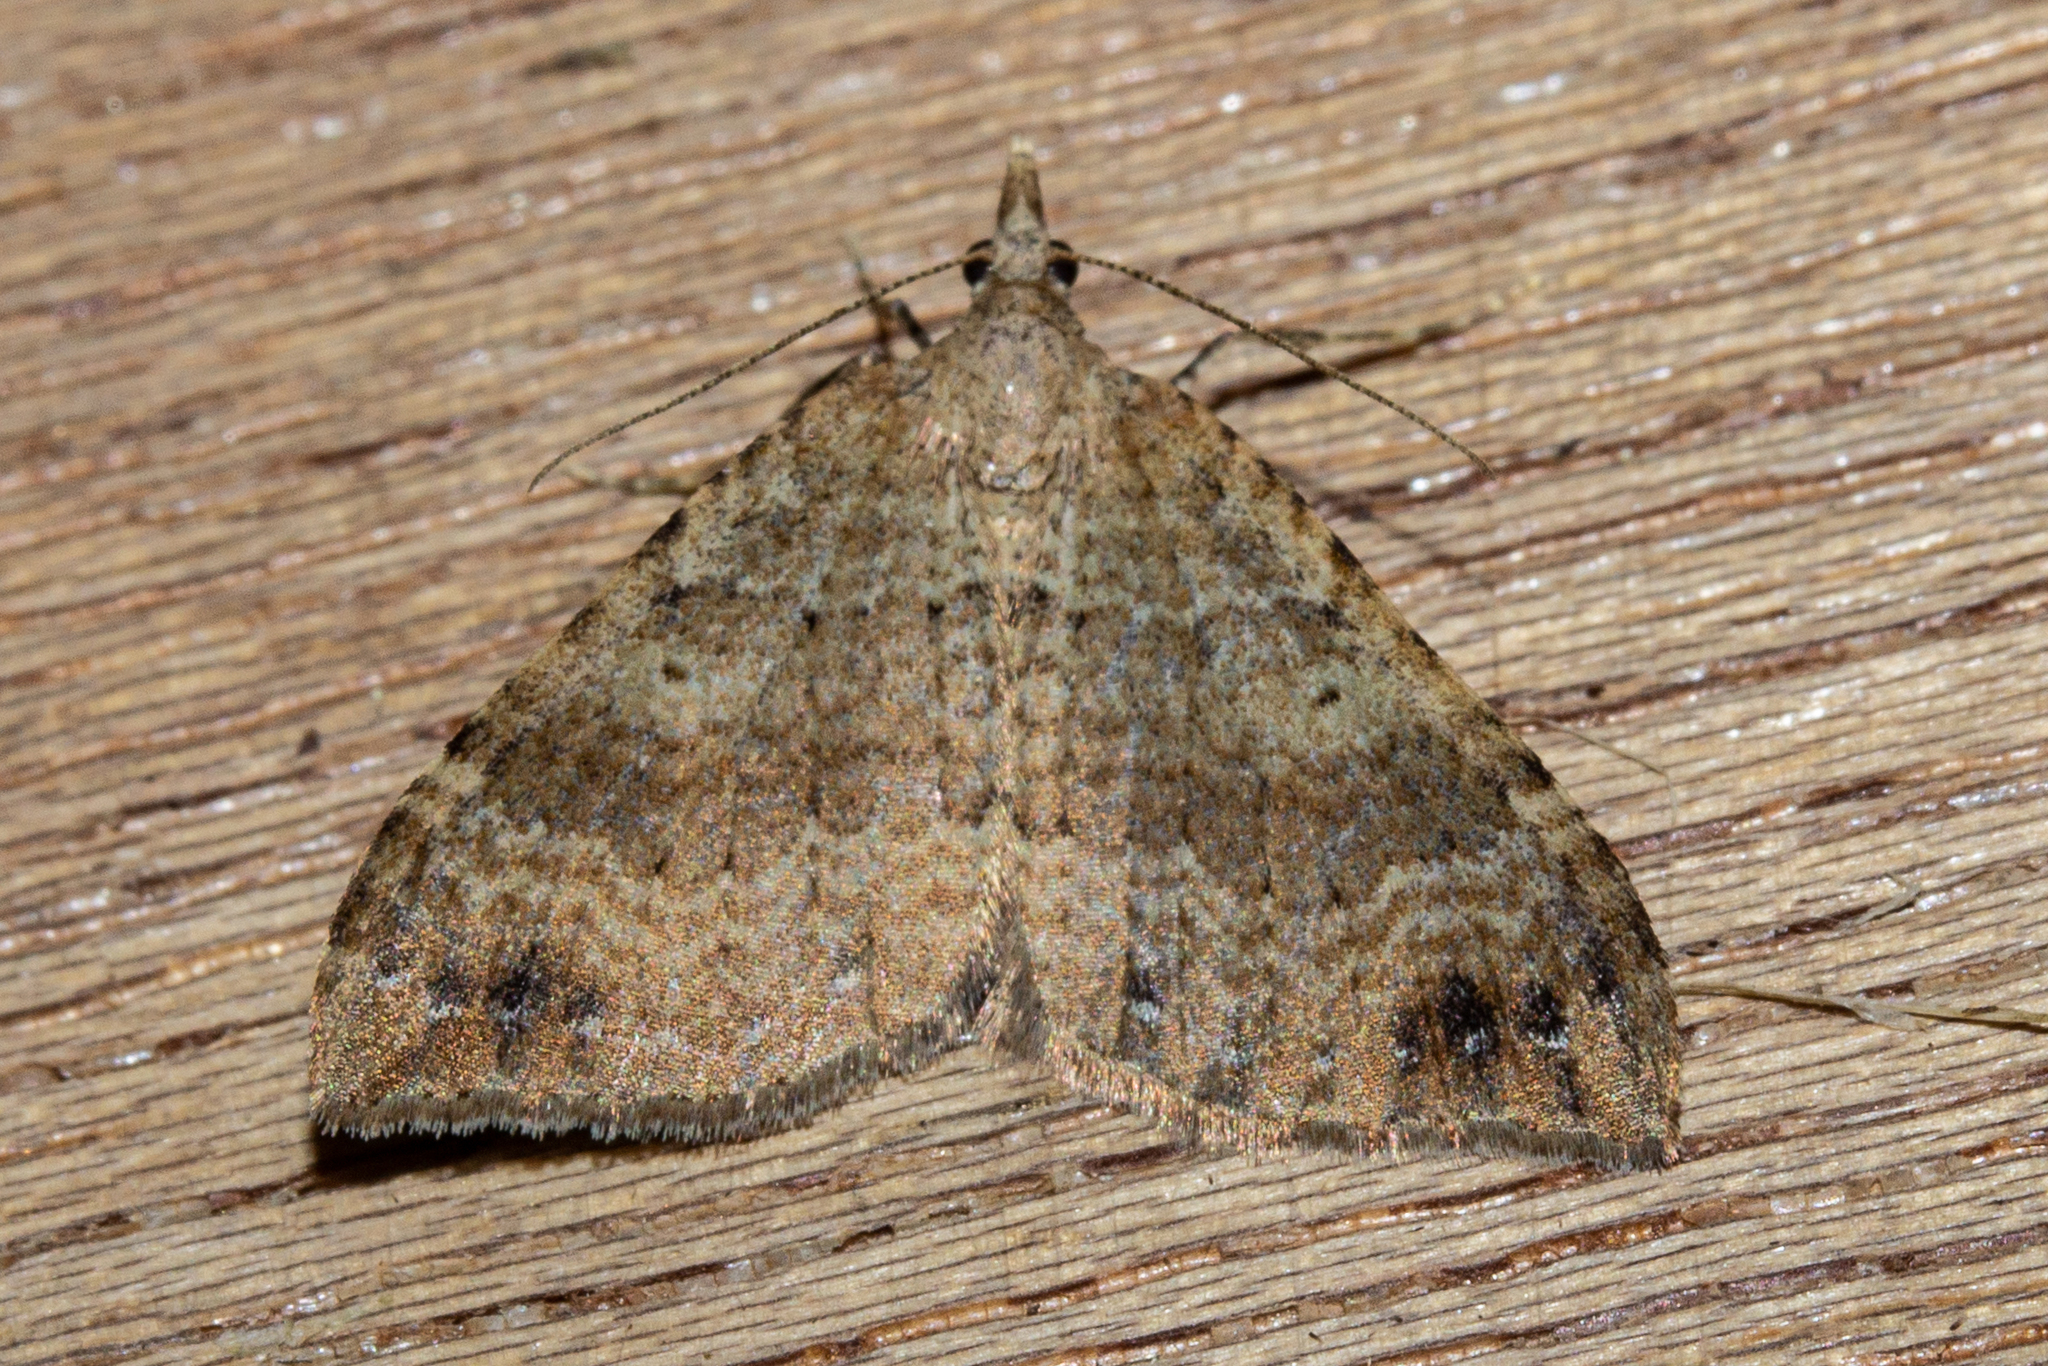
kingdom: Animalia
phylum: Arthropoda
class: Insecta
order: Lepidoptera
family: Geometridae
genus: Homodotis
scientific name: Homodotis falcata
